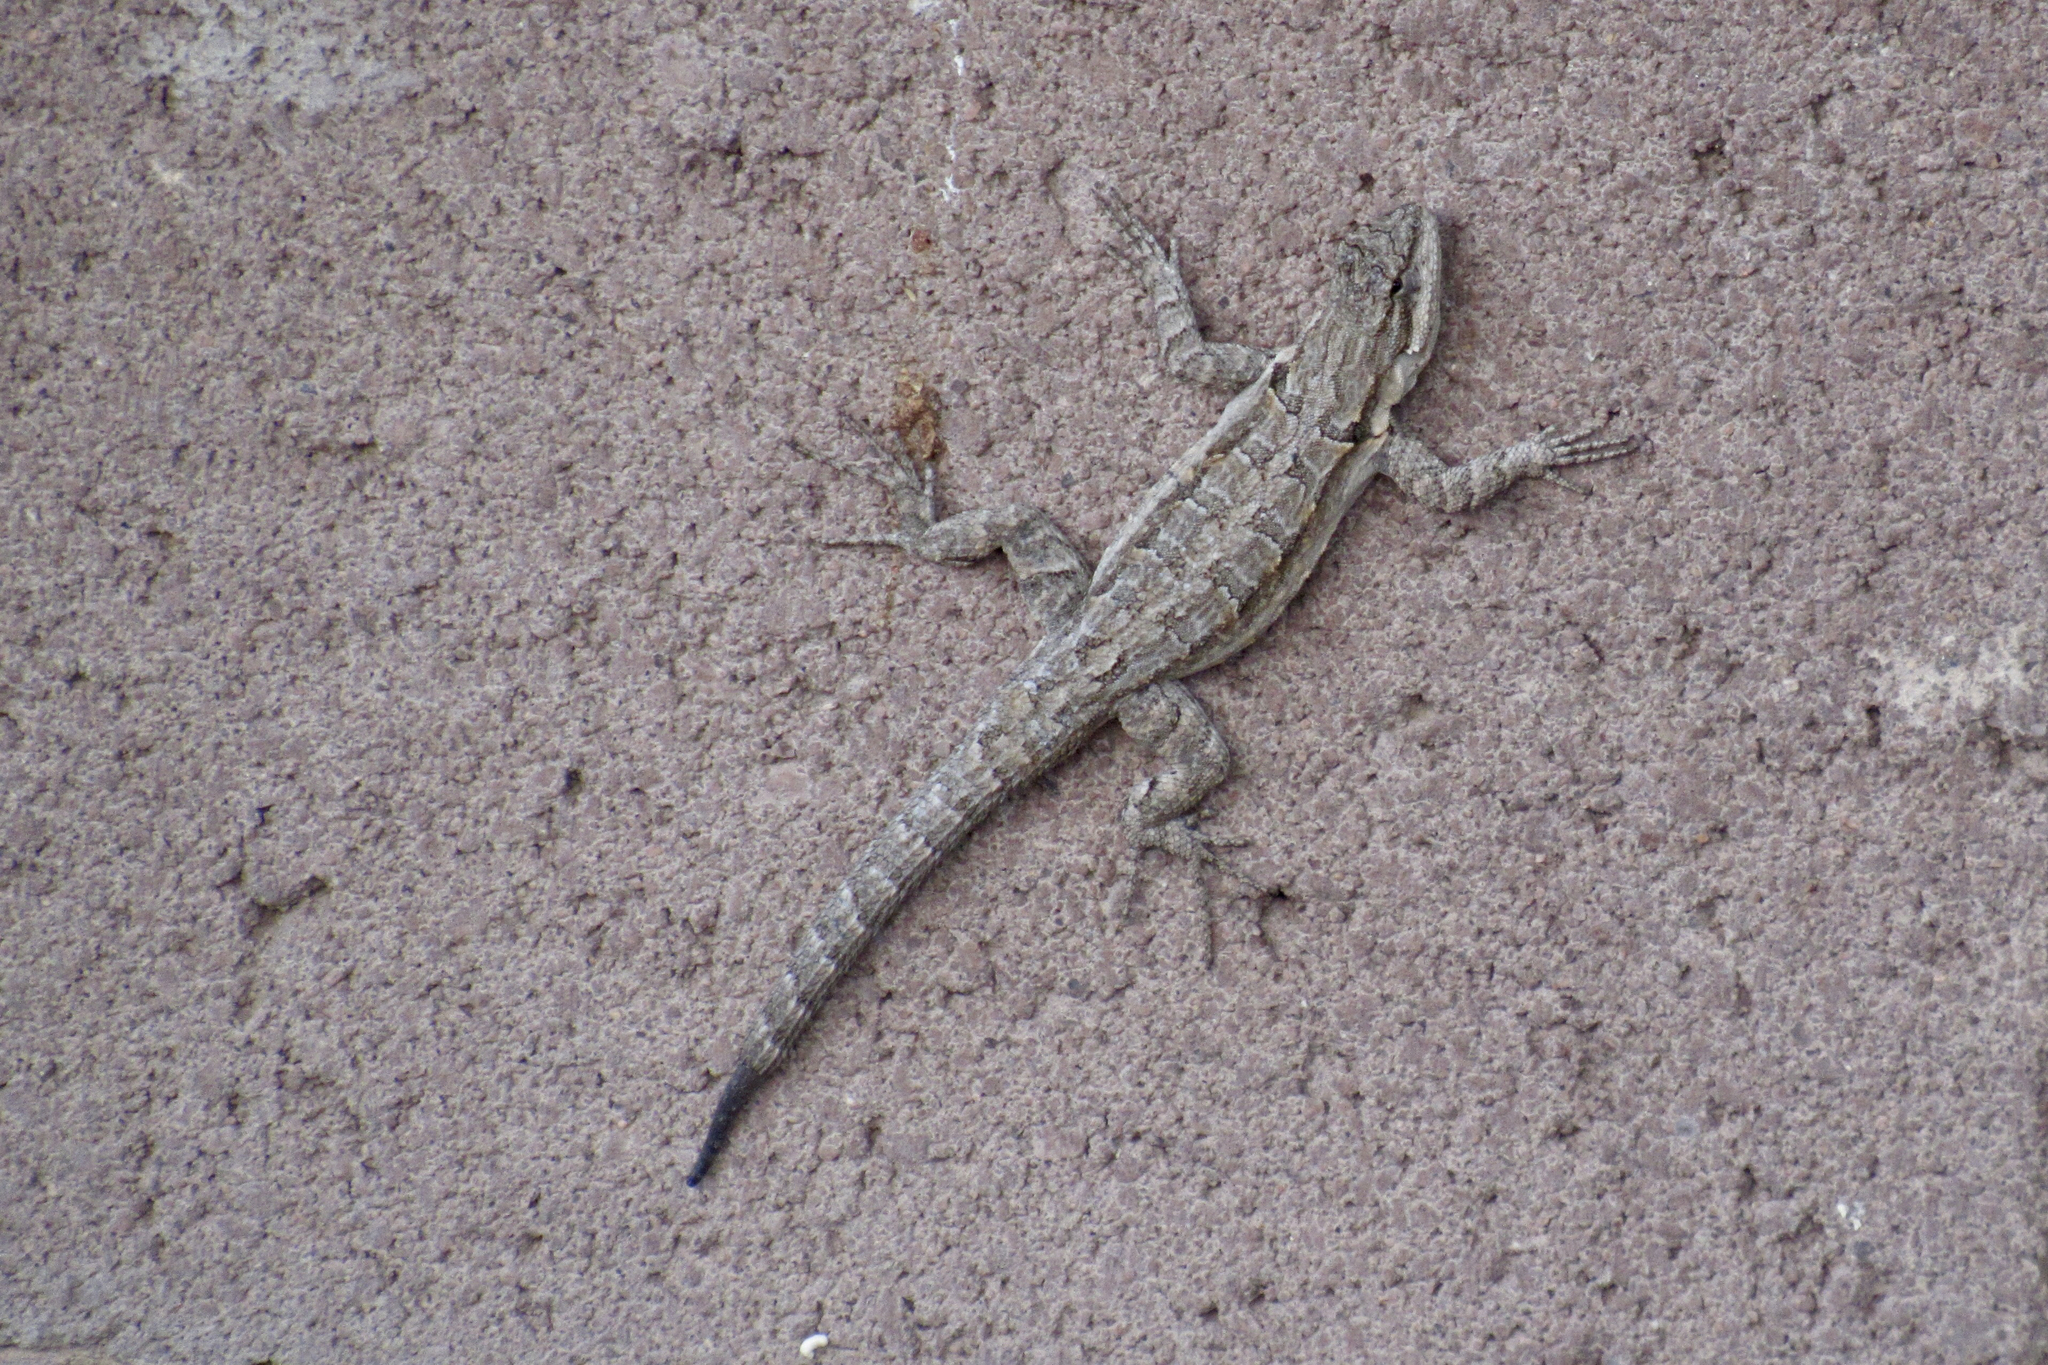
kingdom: Animalia
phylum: Chordata
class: Squamata
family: Phrynosomatidae
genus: Urosaurus
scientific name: Urosaurus ornatus
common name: Ornate tree lizard
